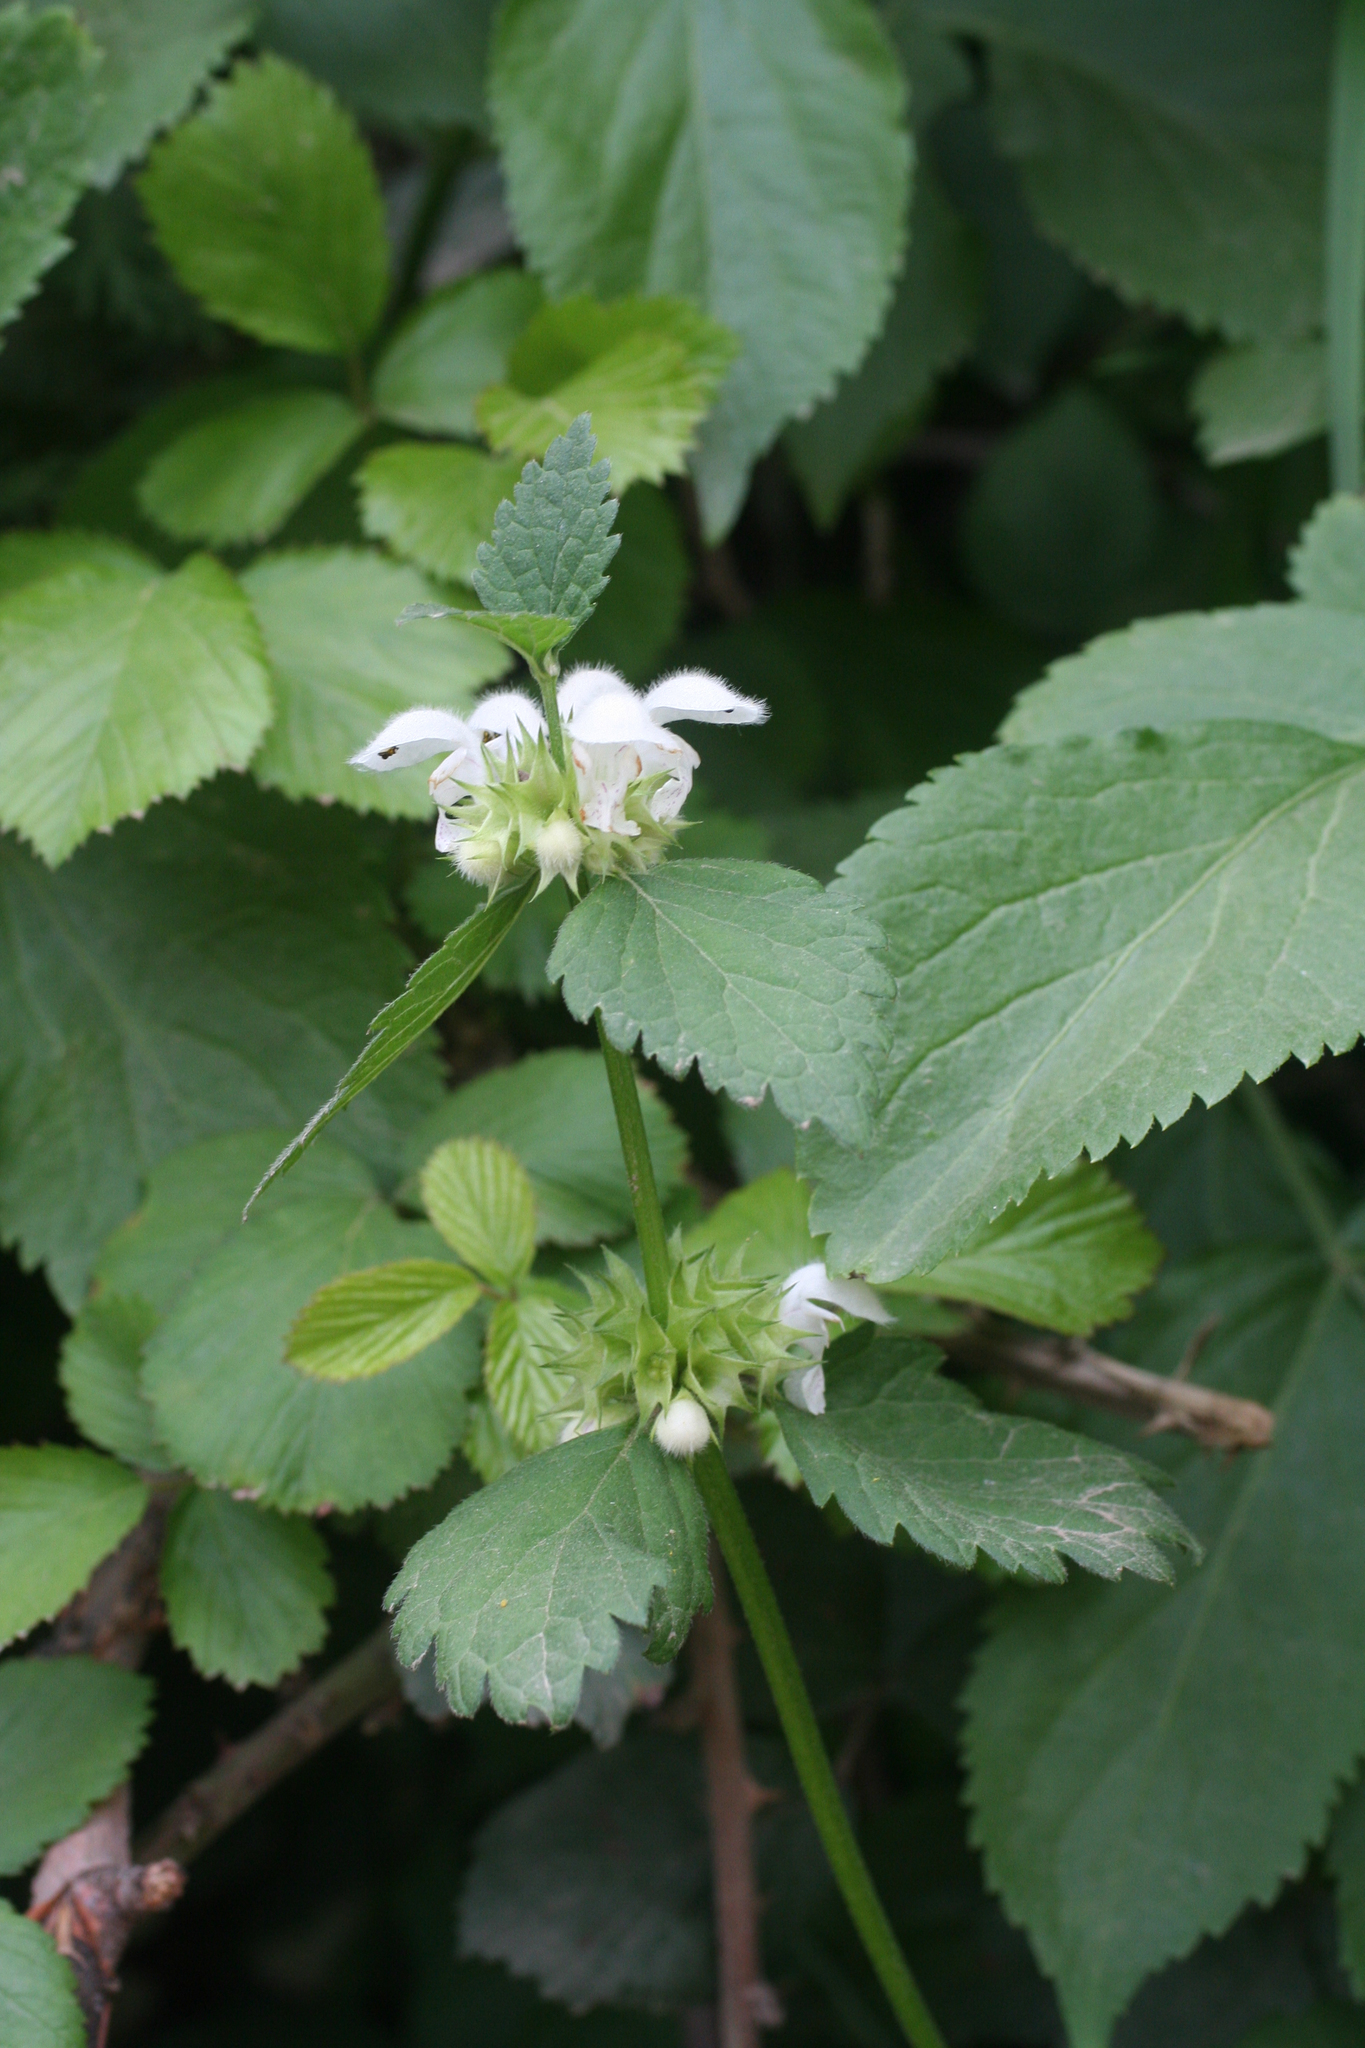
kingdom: Plantae
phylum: Tracheophyta
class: Magnoliopsida
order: Lamiales
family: Lamiaceae
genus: Lamium
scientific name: Lamium flexuosum
